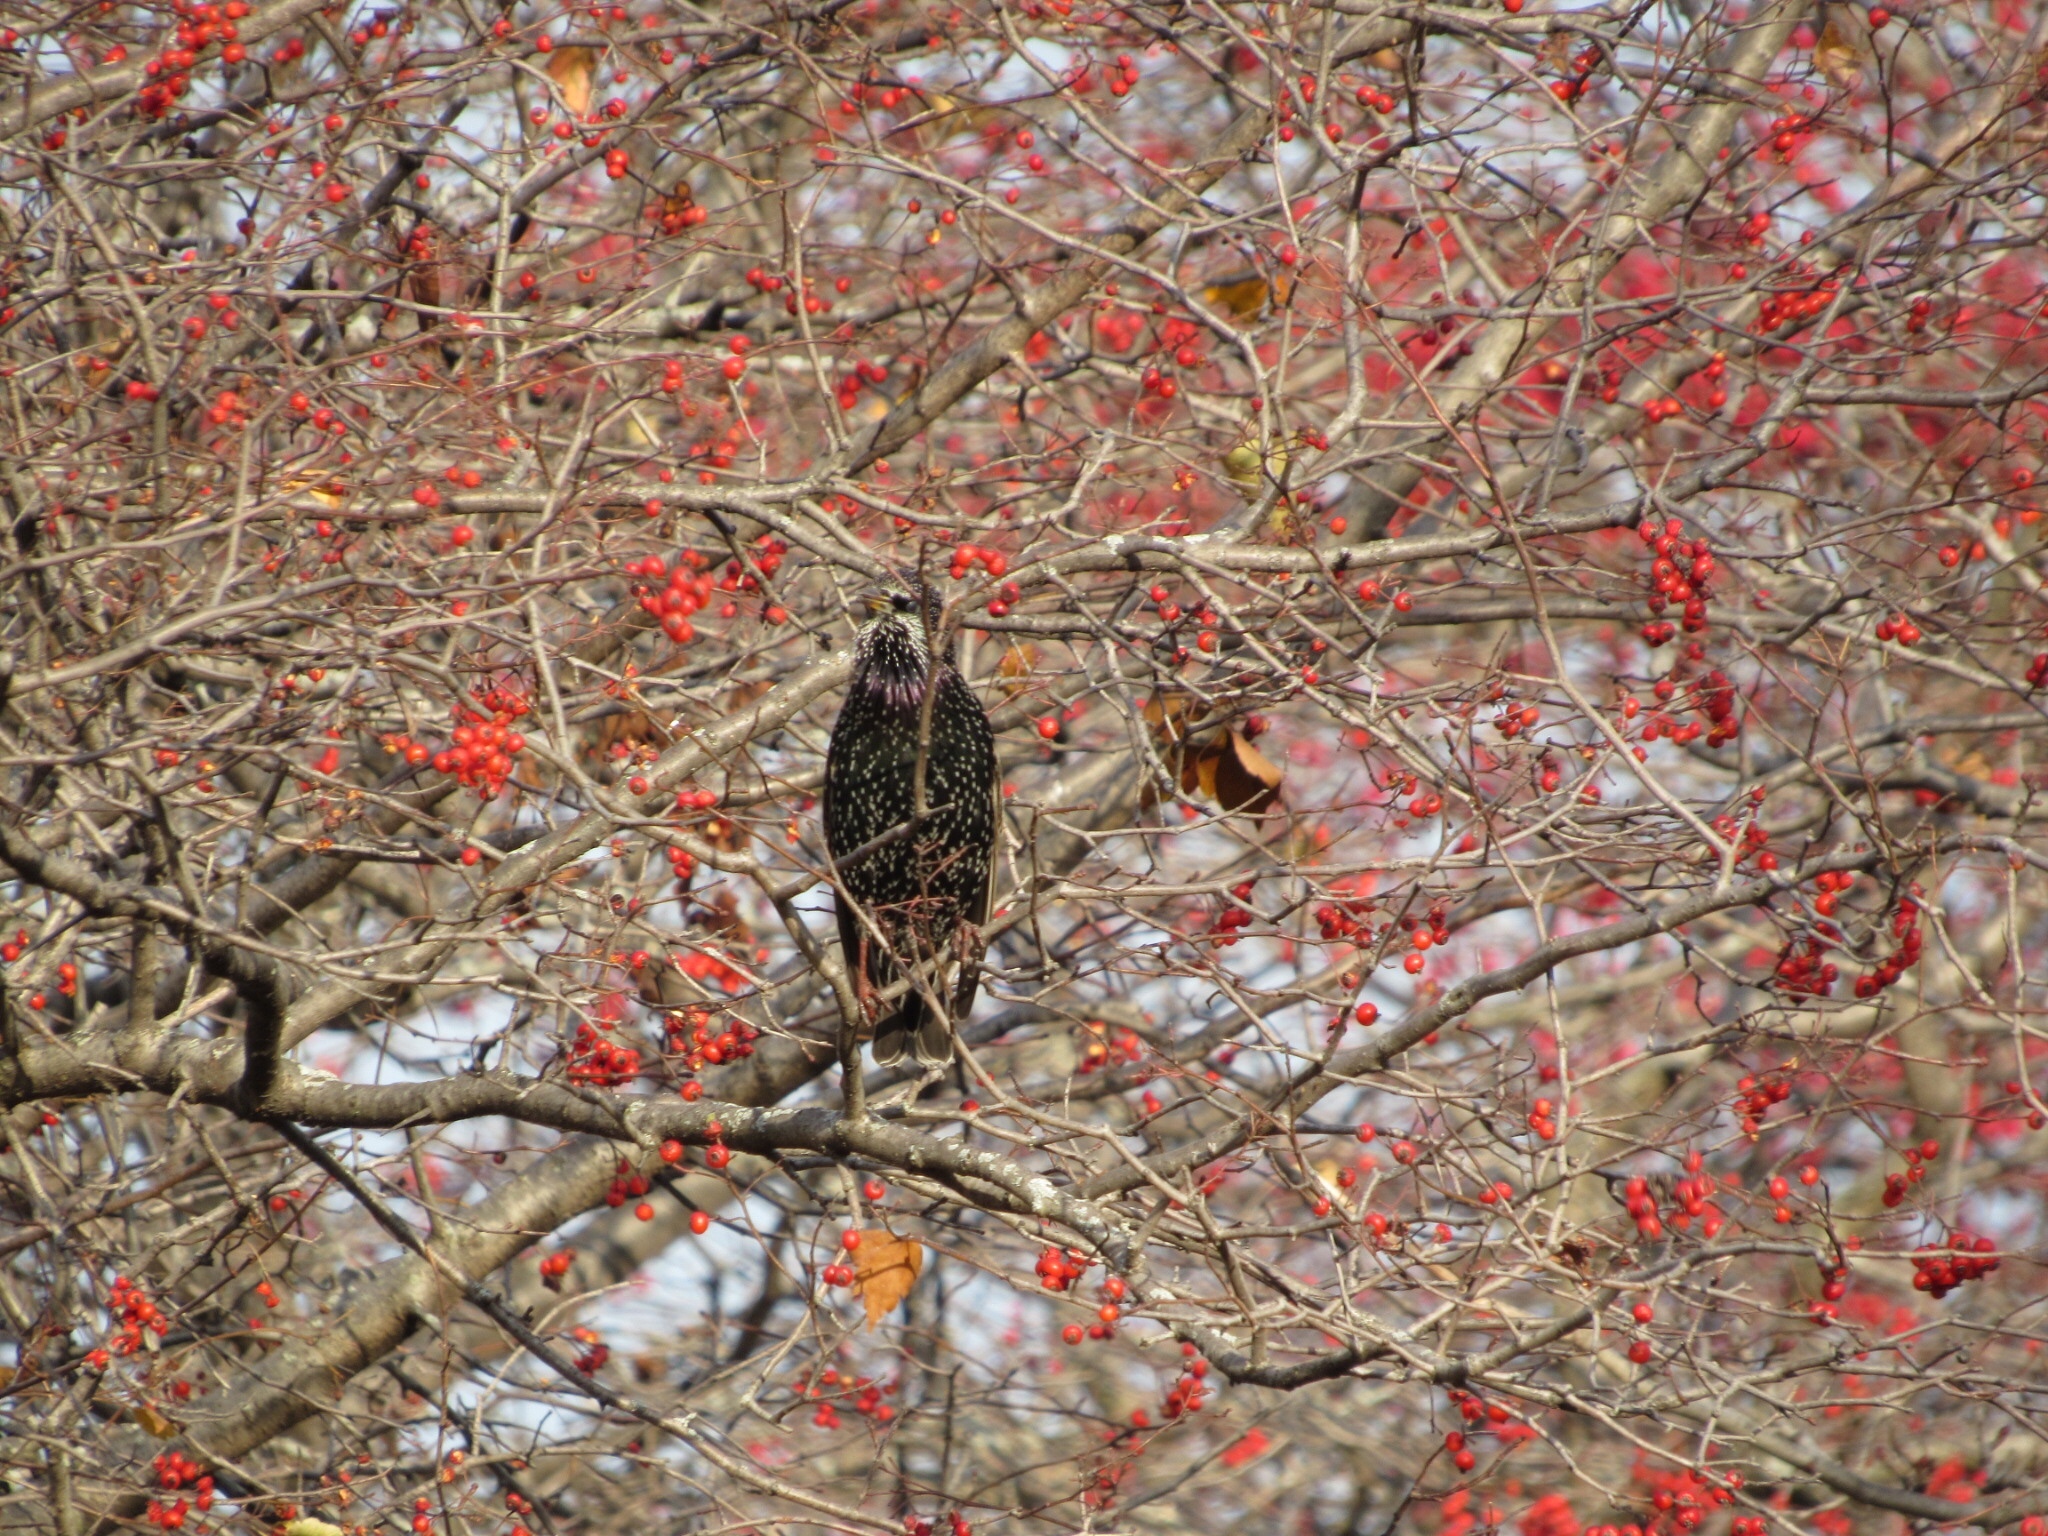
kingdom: Animalia
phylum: Chordata
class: Aves
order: Passeriformes
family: Sturnidae
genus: Sturnus
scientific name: Sturnus vulgaris
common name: Common starling
